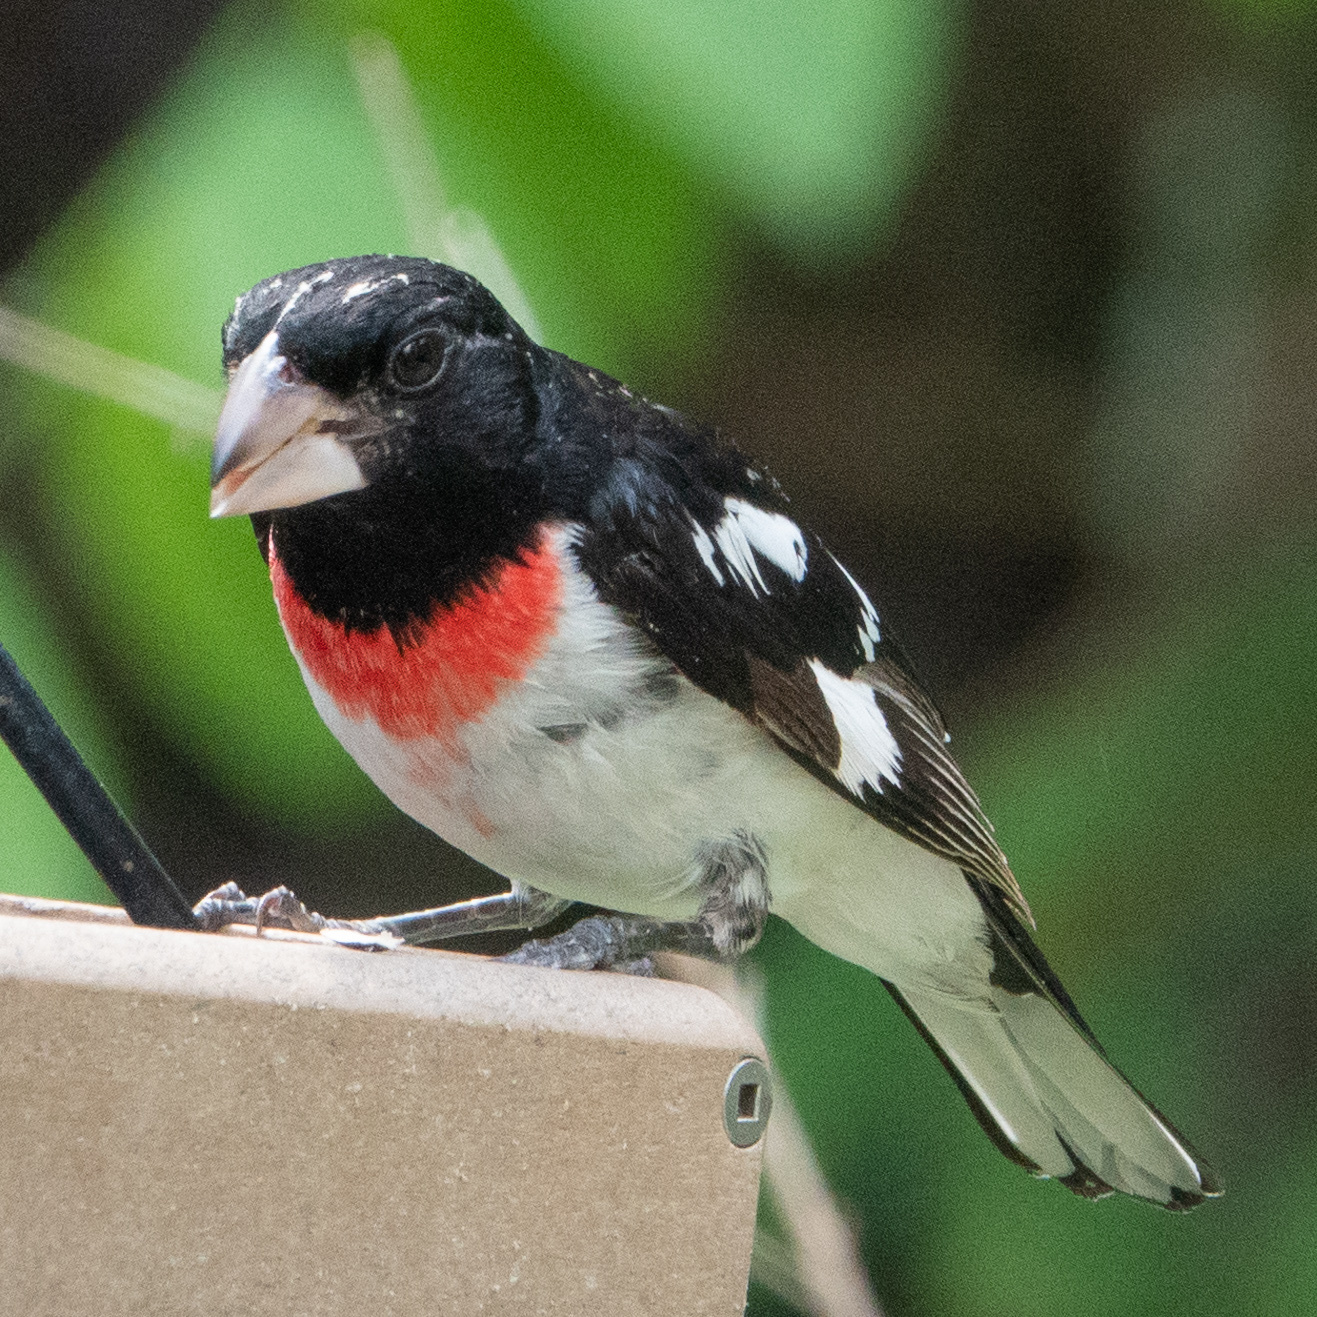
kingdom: Animalia
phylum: Chordata
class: Aves
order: Passeriformes
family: Cardinalidae
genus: Pheucticus
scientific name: Pheucticus ludovicianus
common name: Rose-breasted grosbeak
